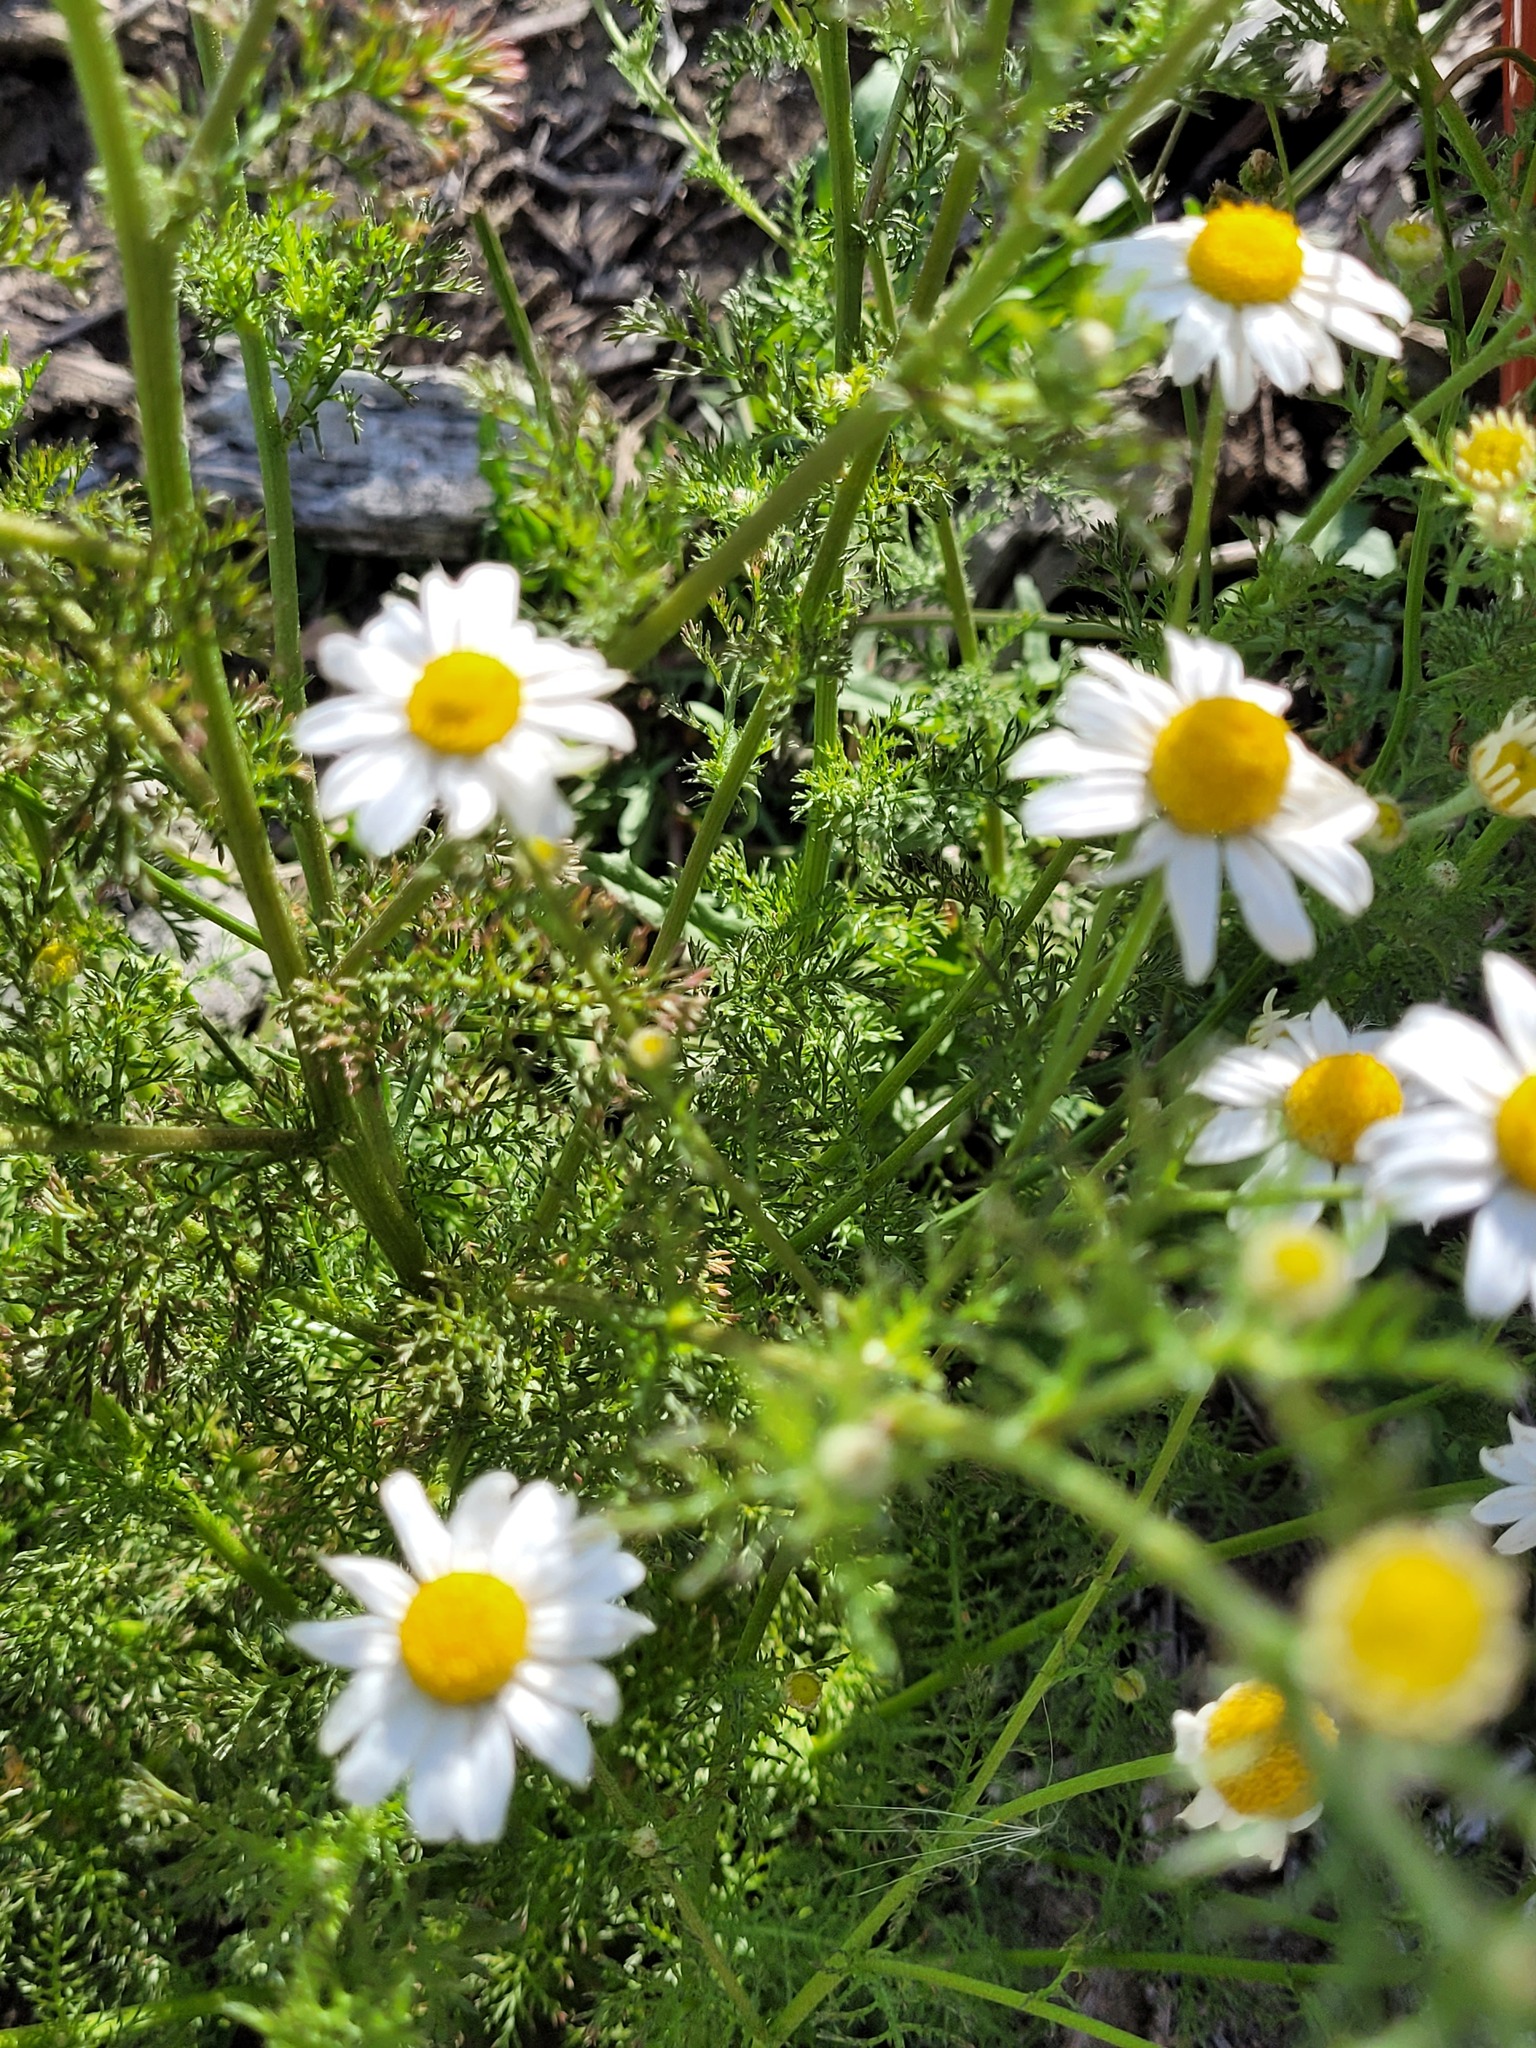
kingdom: Plantae
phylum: Tracheophyta
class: Magnoliopsida
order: Asterales
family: Asteraceae
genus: Tripleurospermum
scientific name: Tripleurospermum inodorum
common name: Scentless mayweed
